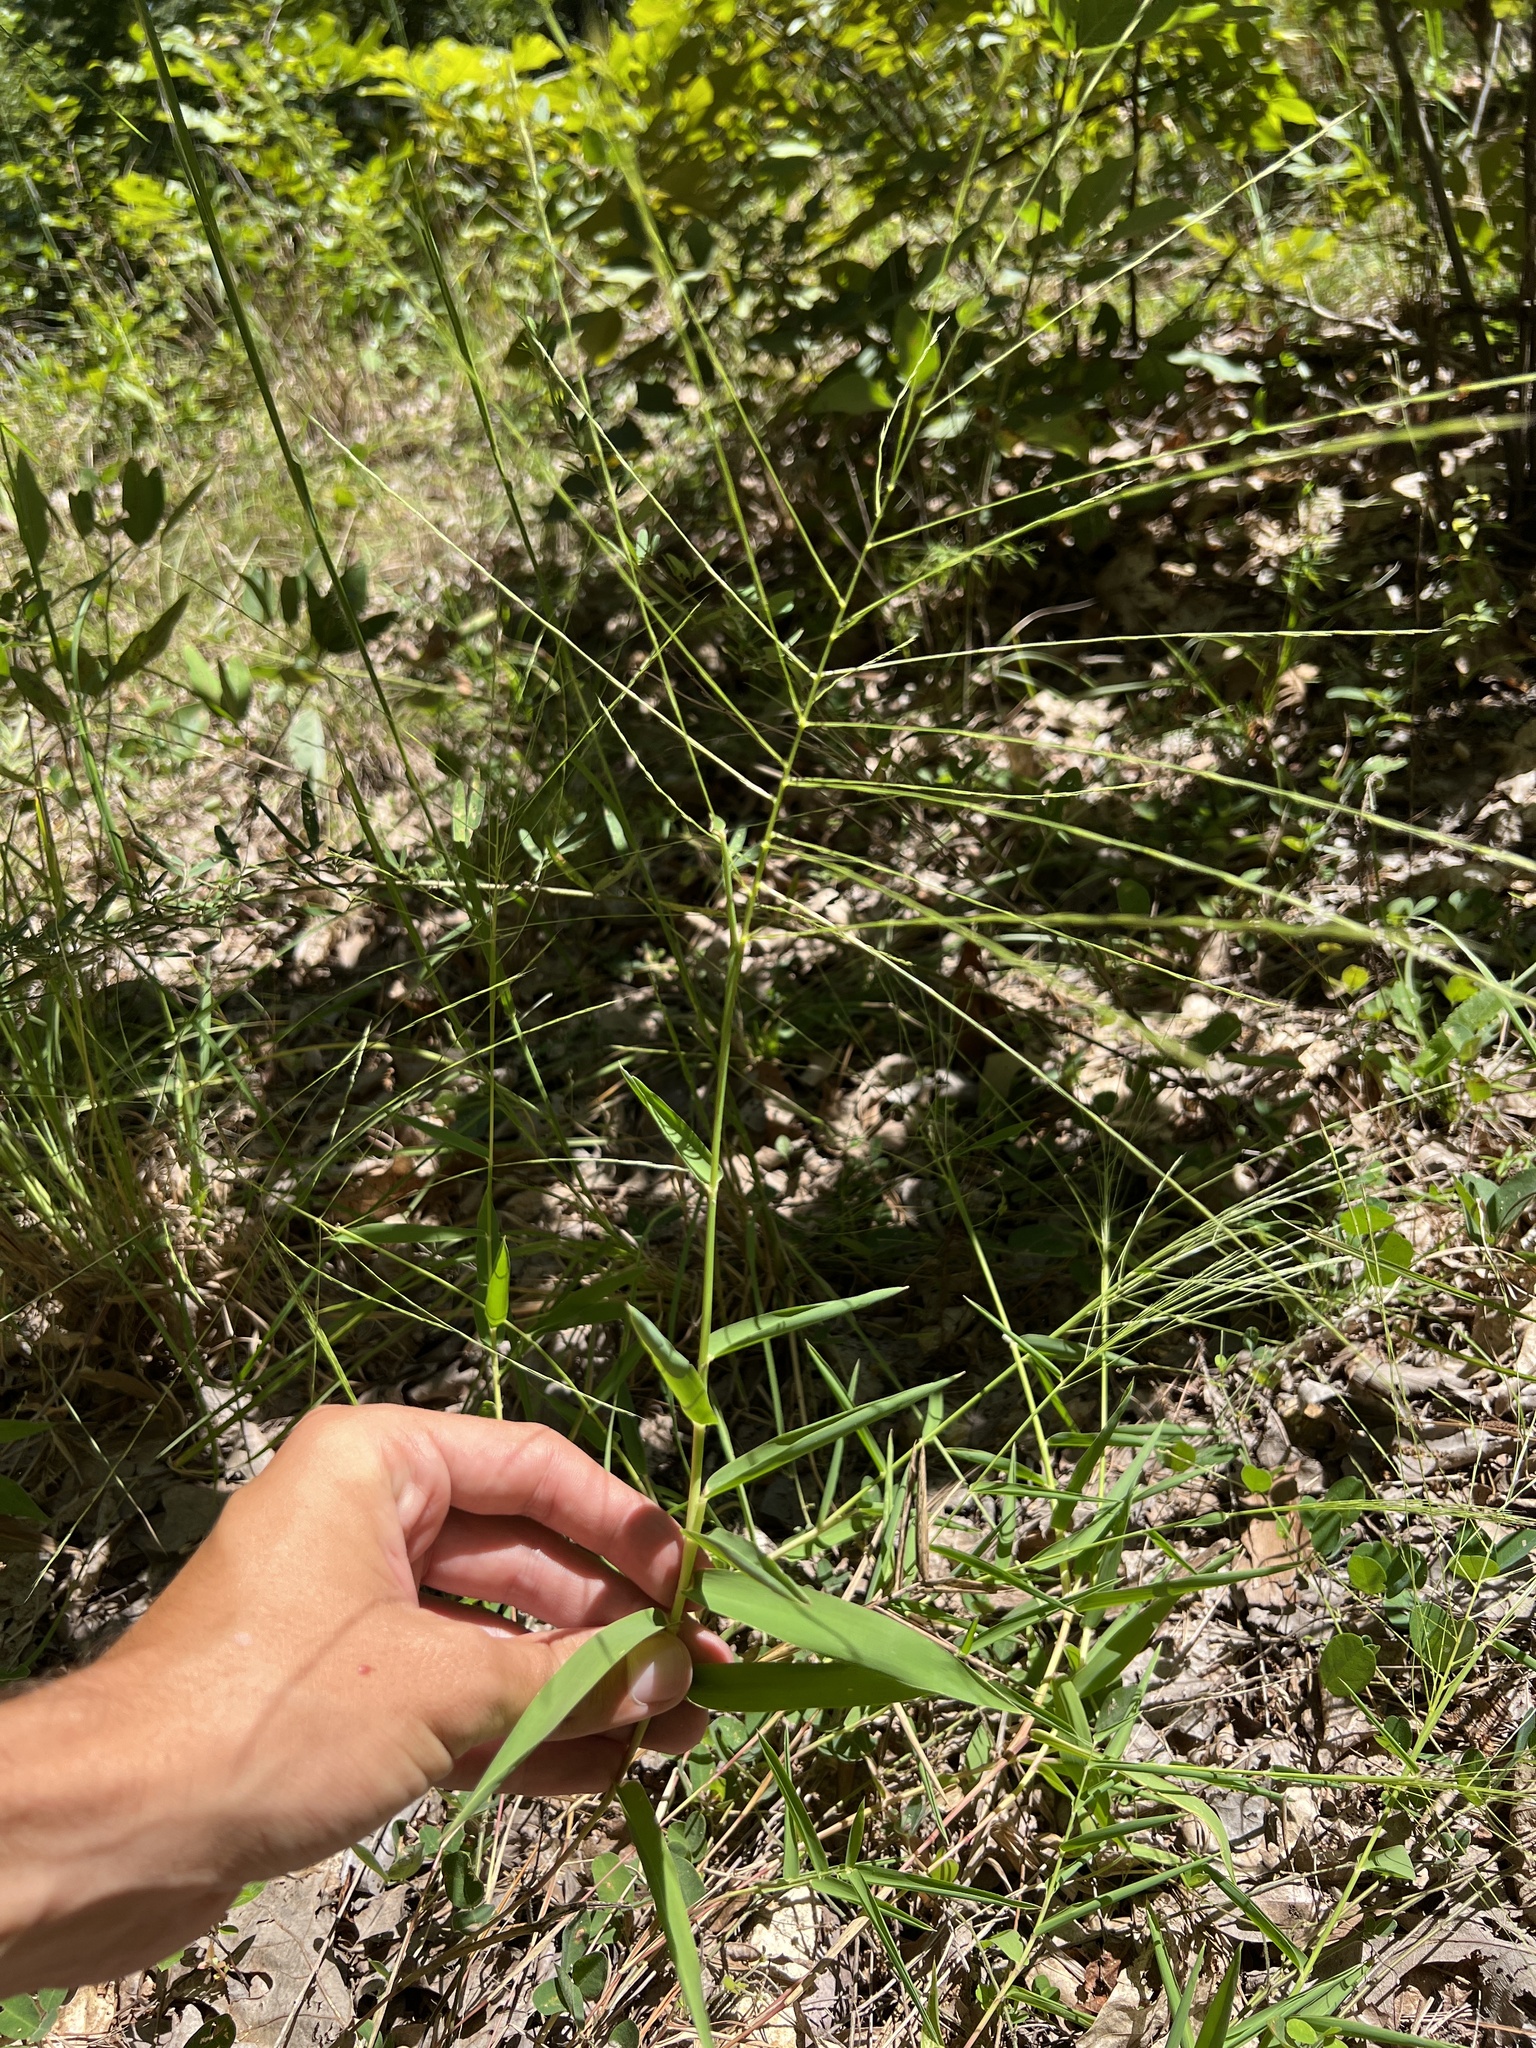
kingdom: Plantae
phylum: Tracheophyta
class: Liliopsida
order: Poales
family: Poaceae
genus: Gymnopogon
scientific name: Gymnopogon ambiguus
